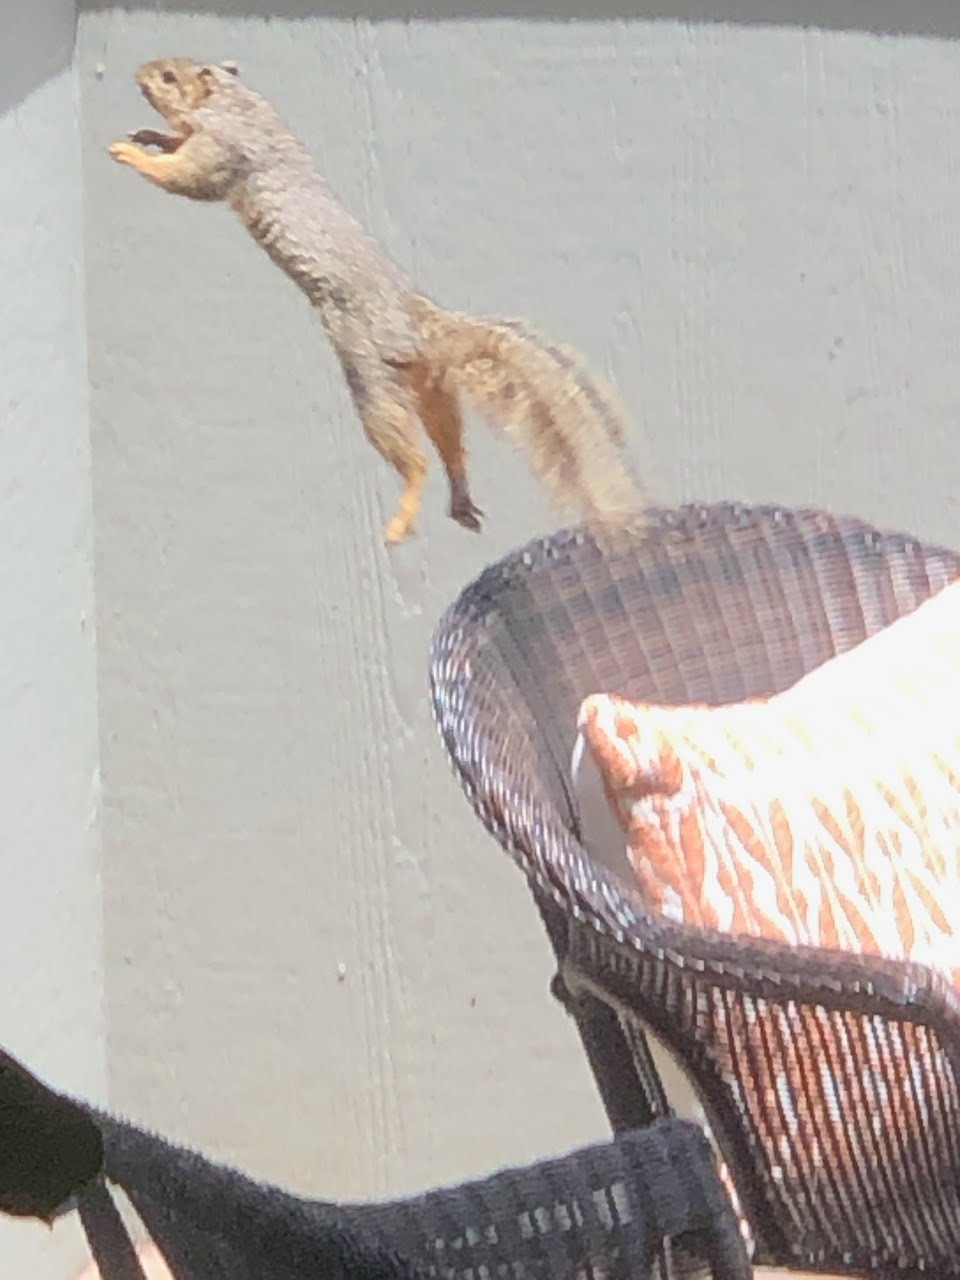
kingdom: Animalia
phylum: Chordata
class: Mammalia
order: Rodentia
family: Sciuridae
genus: Sciurus
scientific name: Sciurus niger
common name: Fox squirrel
